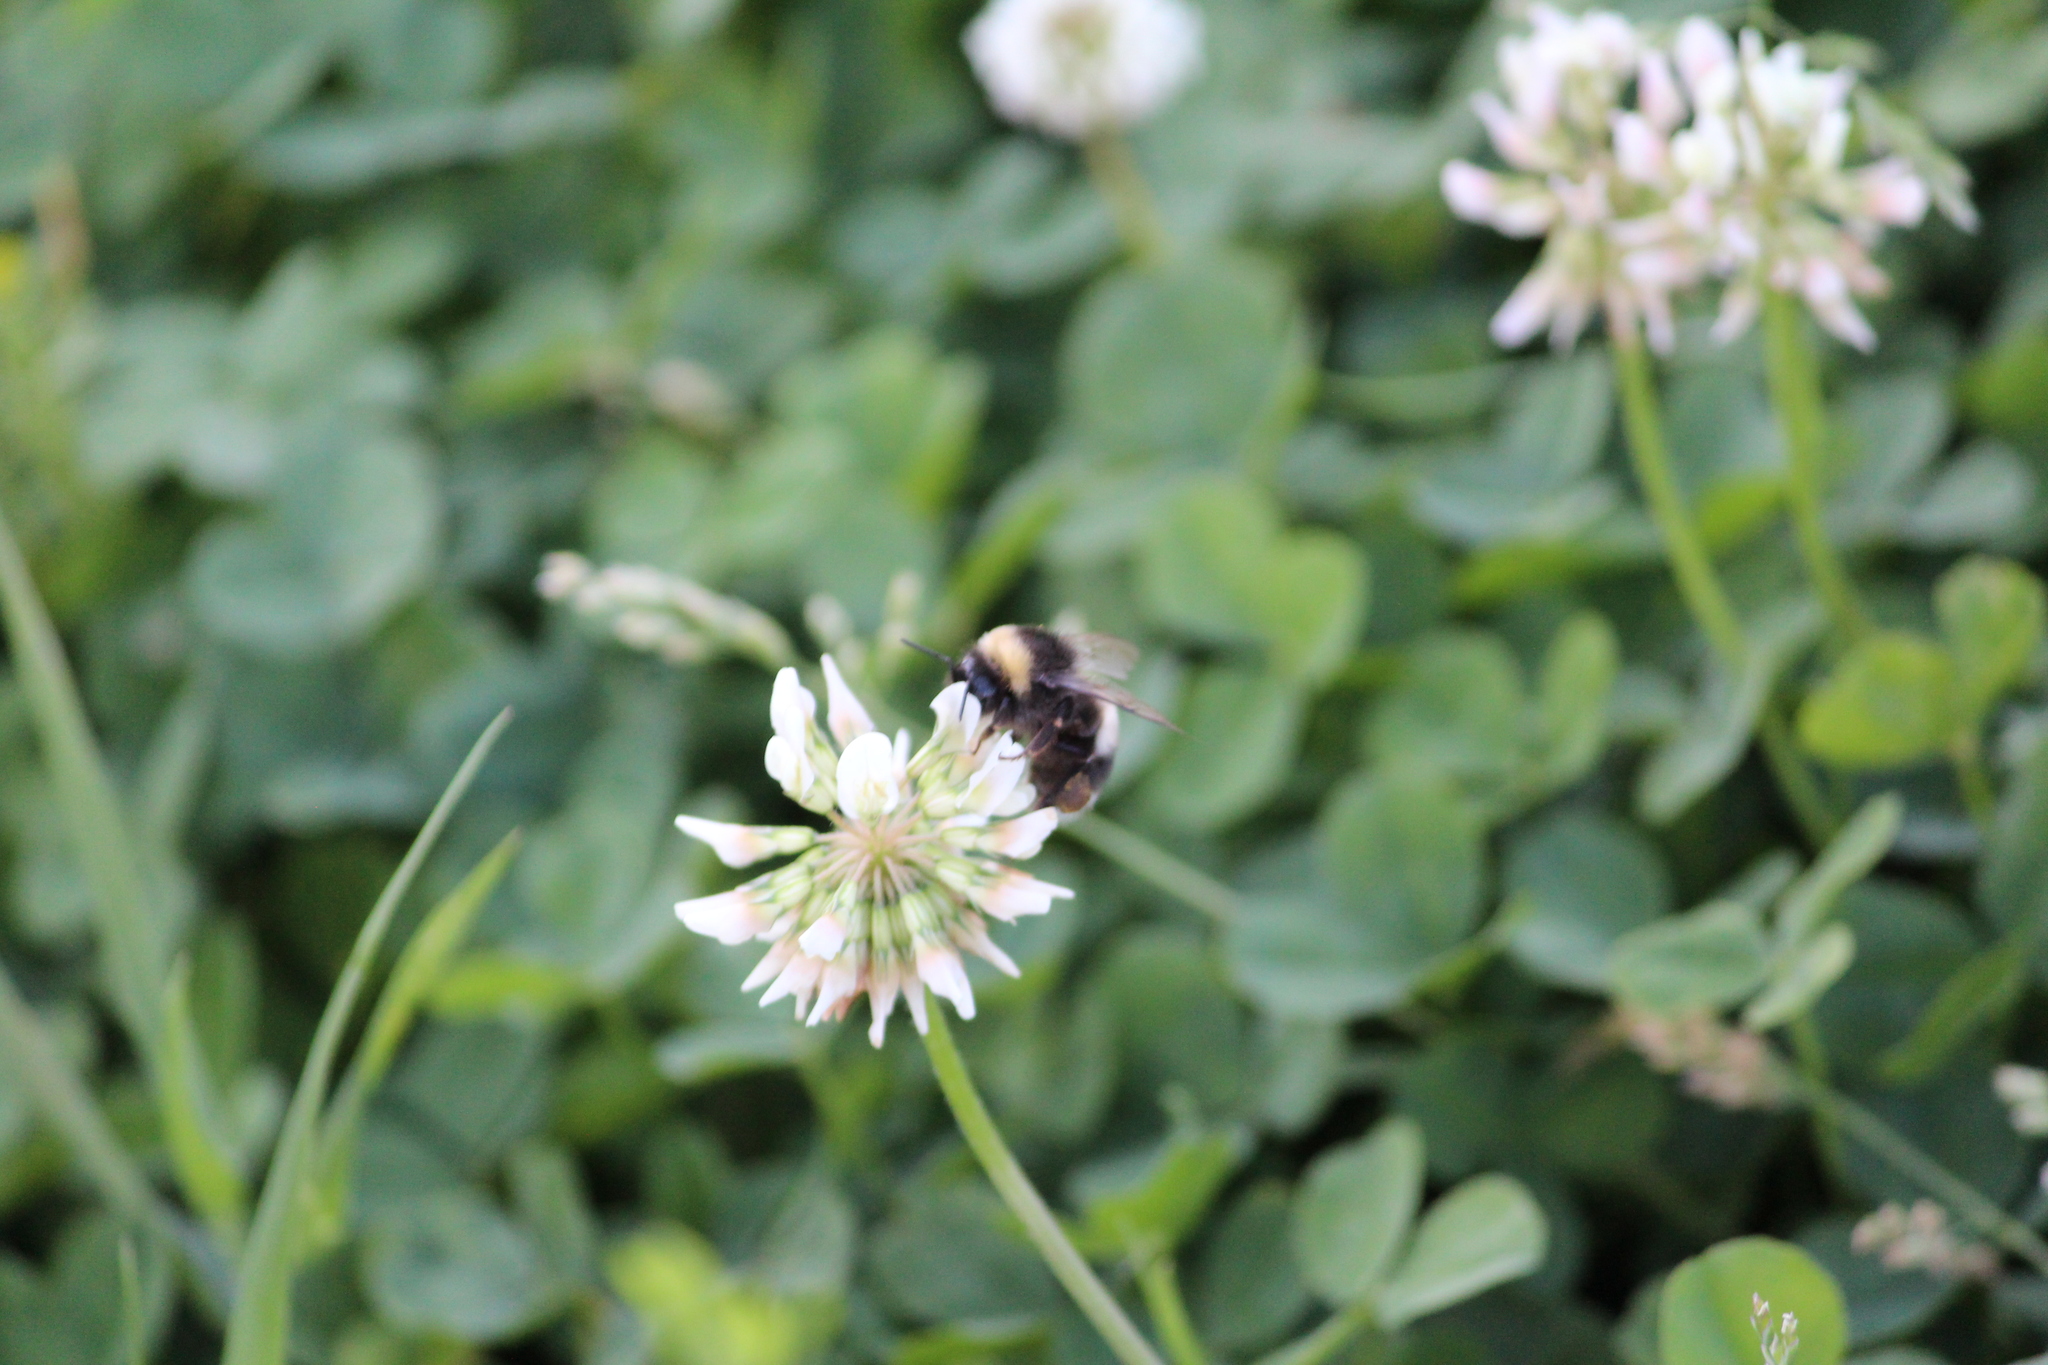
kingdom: Animalia
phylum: Arthropoda
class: Insecta
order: Hymenoptera
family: Apidae
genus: Bombus
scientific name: Bombus
